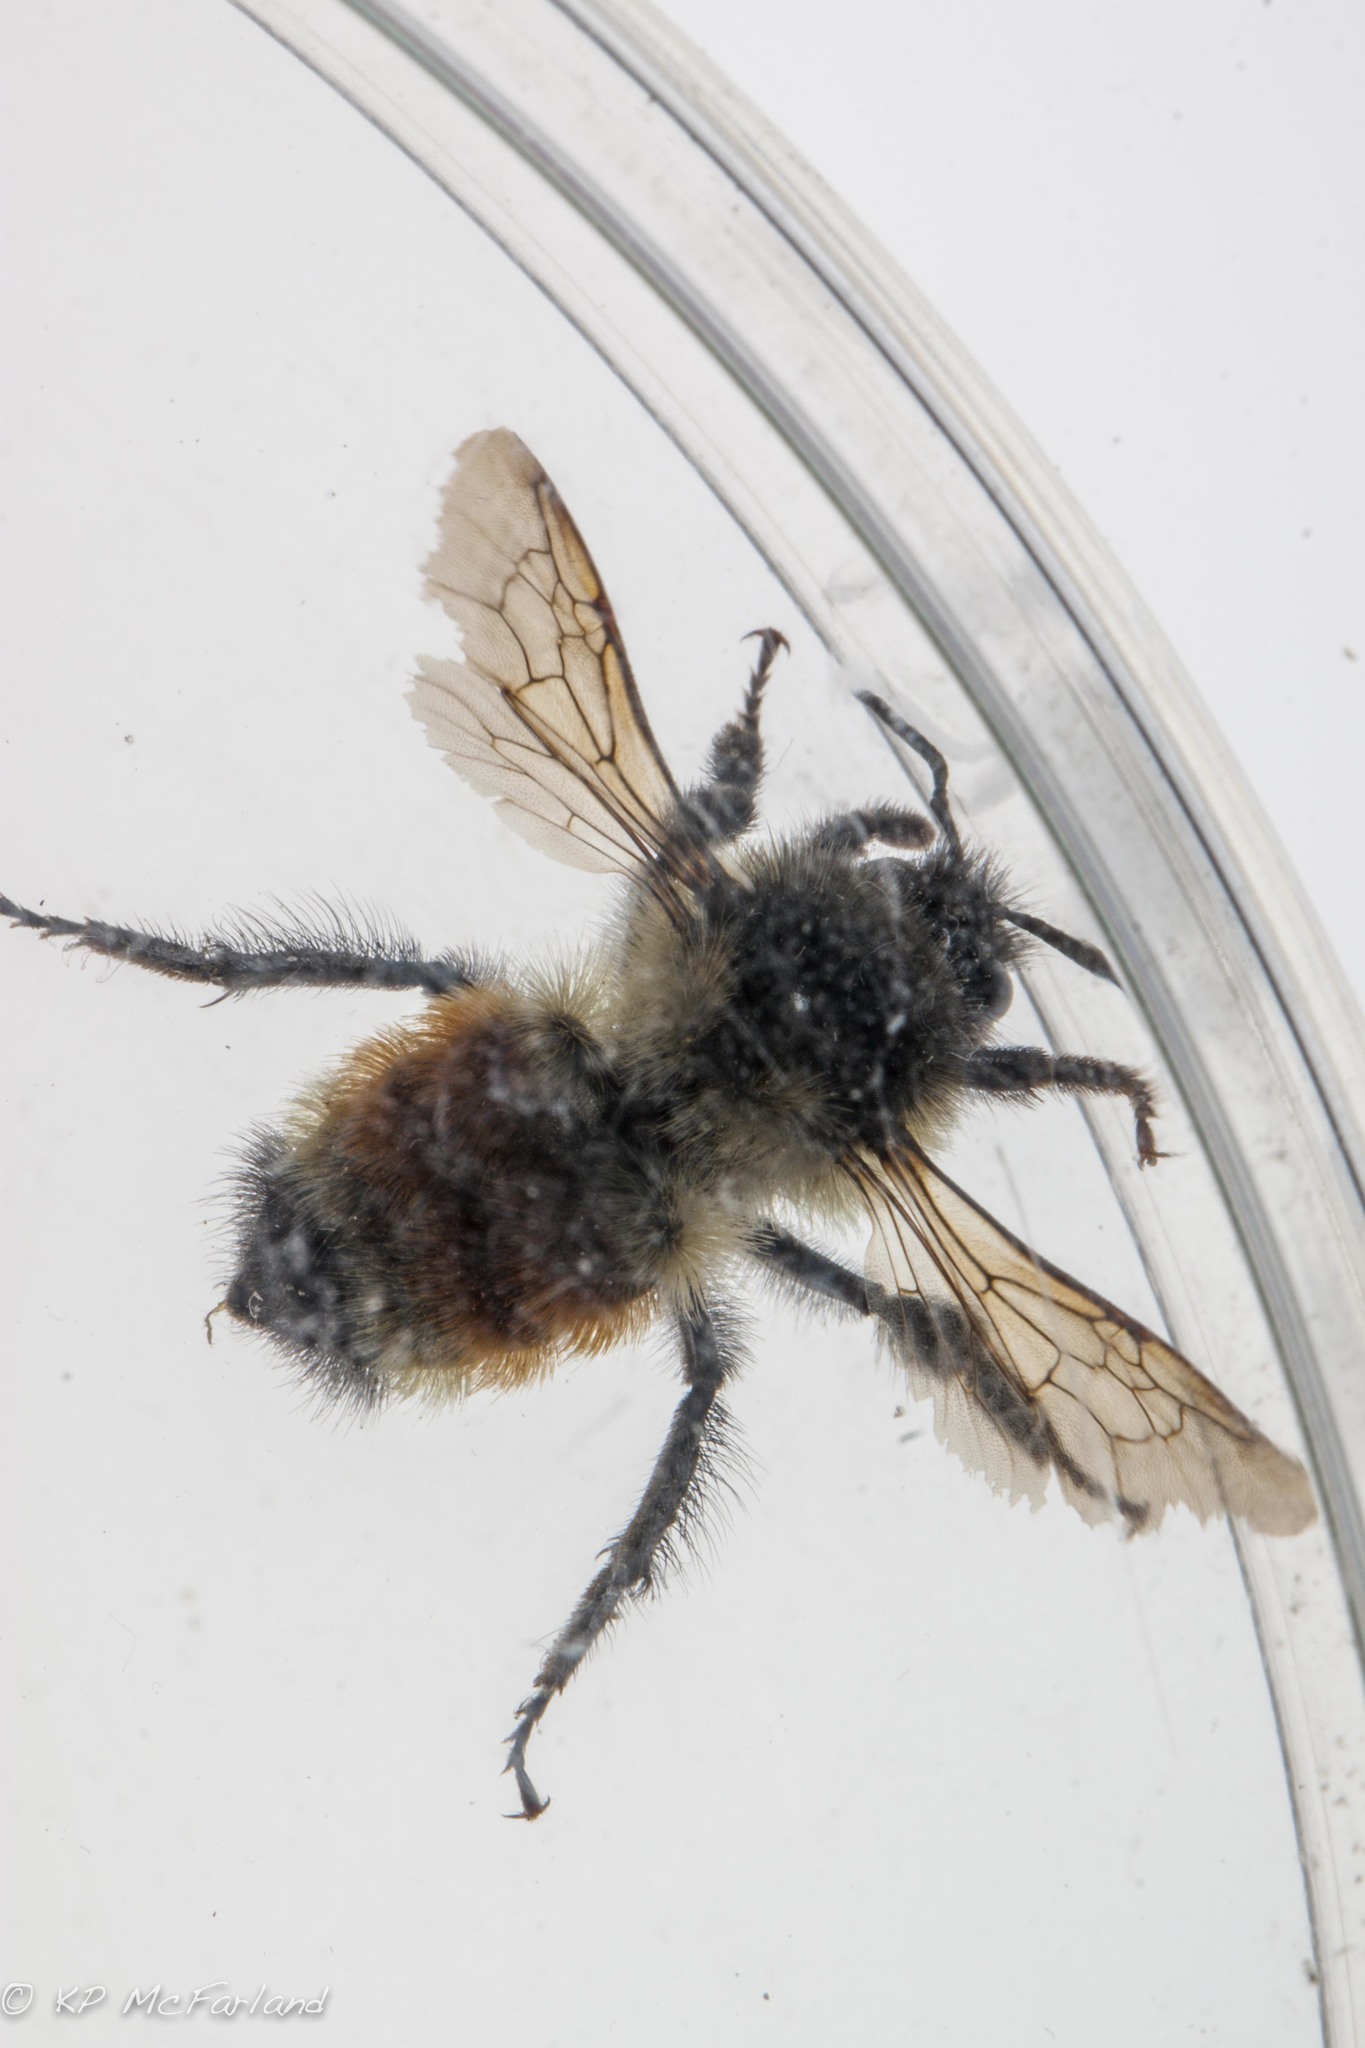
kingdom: Animalia
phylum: Arthropoda
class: Insecta
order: Hymenoptera
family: Apidae
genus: Bombus
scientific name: Bombus ternarius
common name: Tri-colored bumble bee
